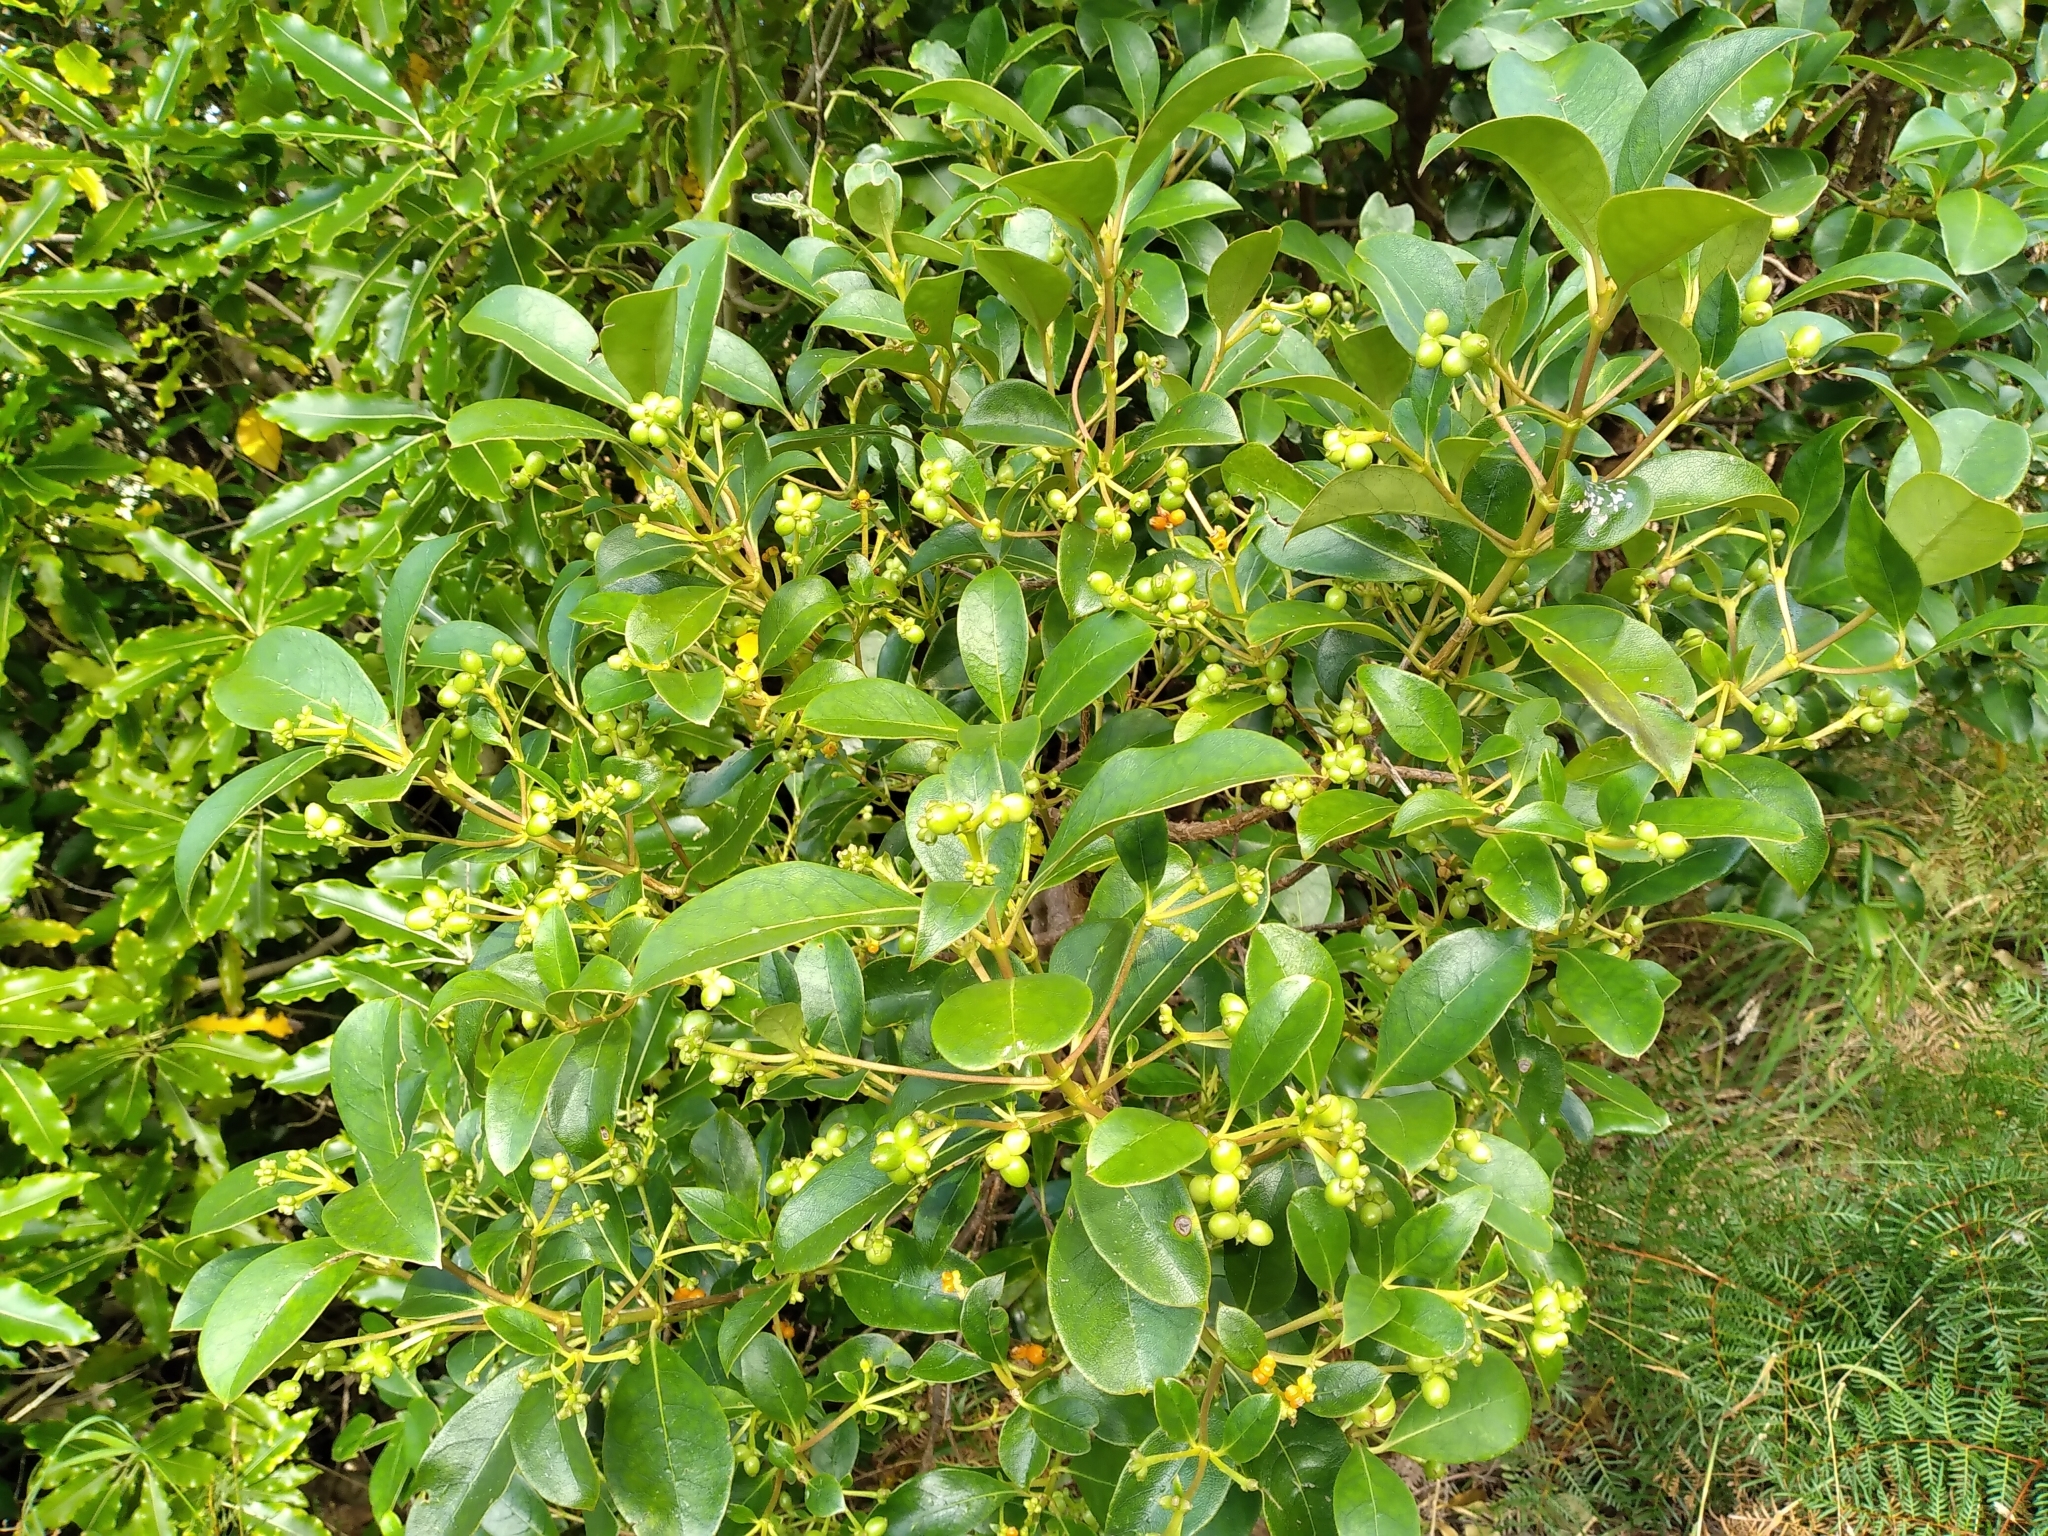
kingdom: Plantae
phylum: Tracheophyta
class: Magnoliopsida
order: Gentianales
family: Rubiaceae
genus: Coprosma
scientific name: Coprosma lucida
